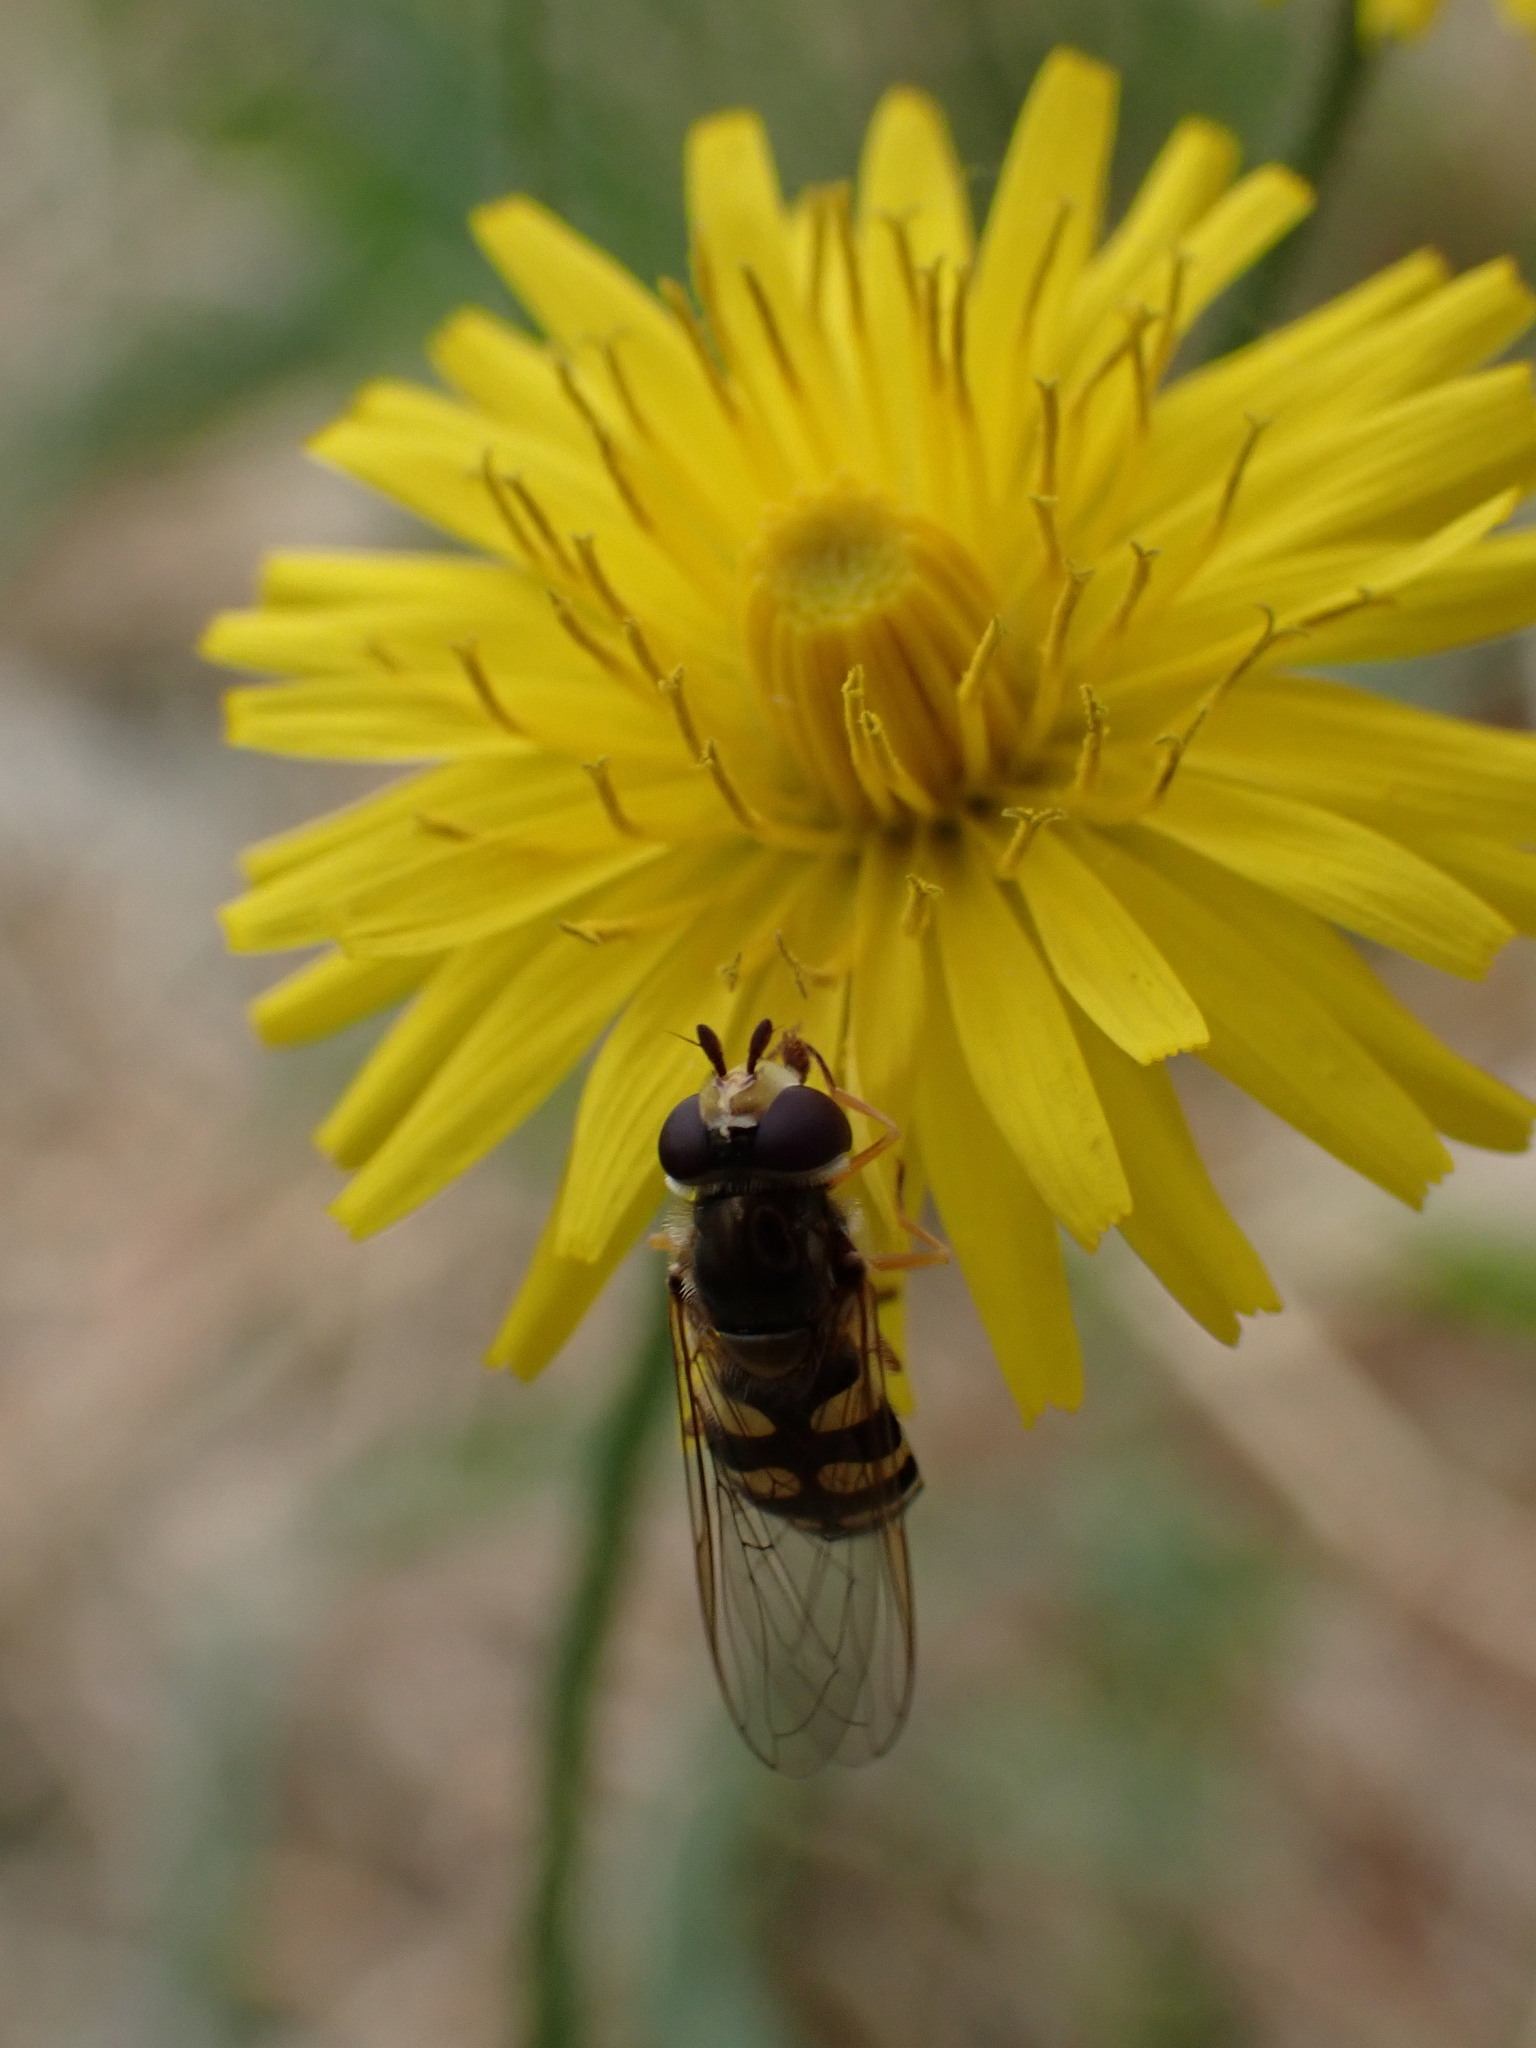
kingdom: Animalia
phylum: Arthropoda
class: Insecta
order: Diptera
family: Syrphidae
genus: Eupeodes
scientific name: Eupeodes corollae
